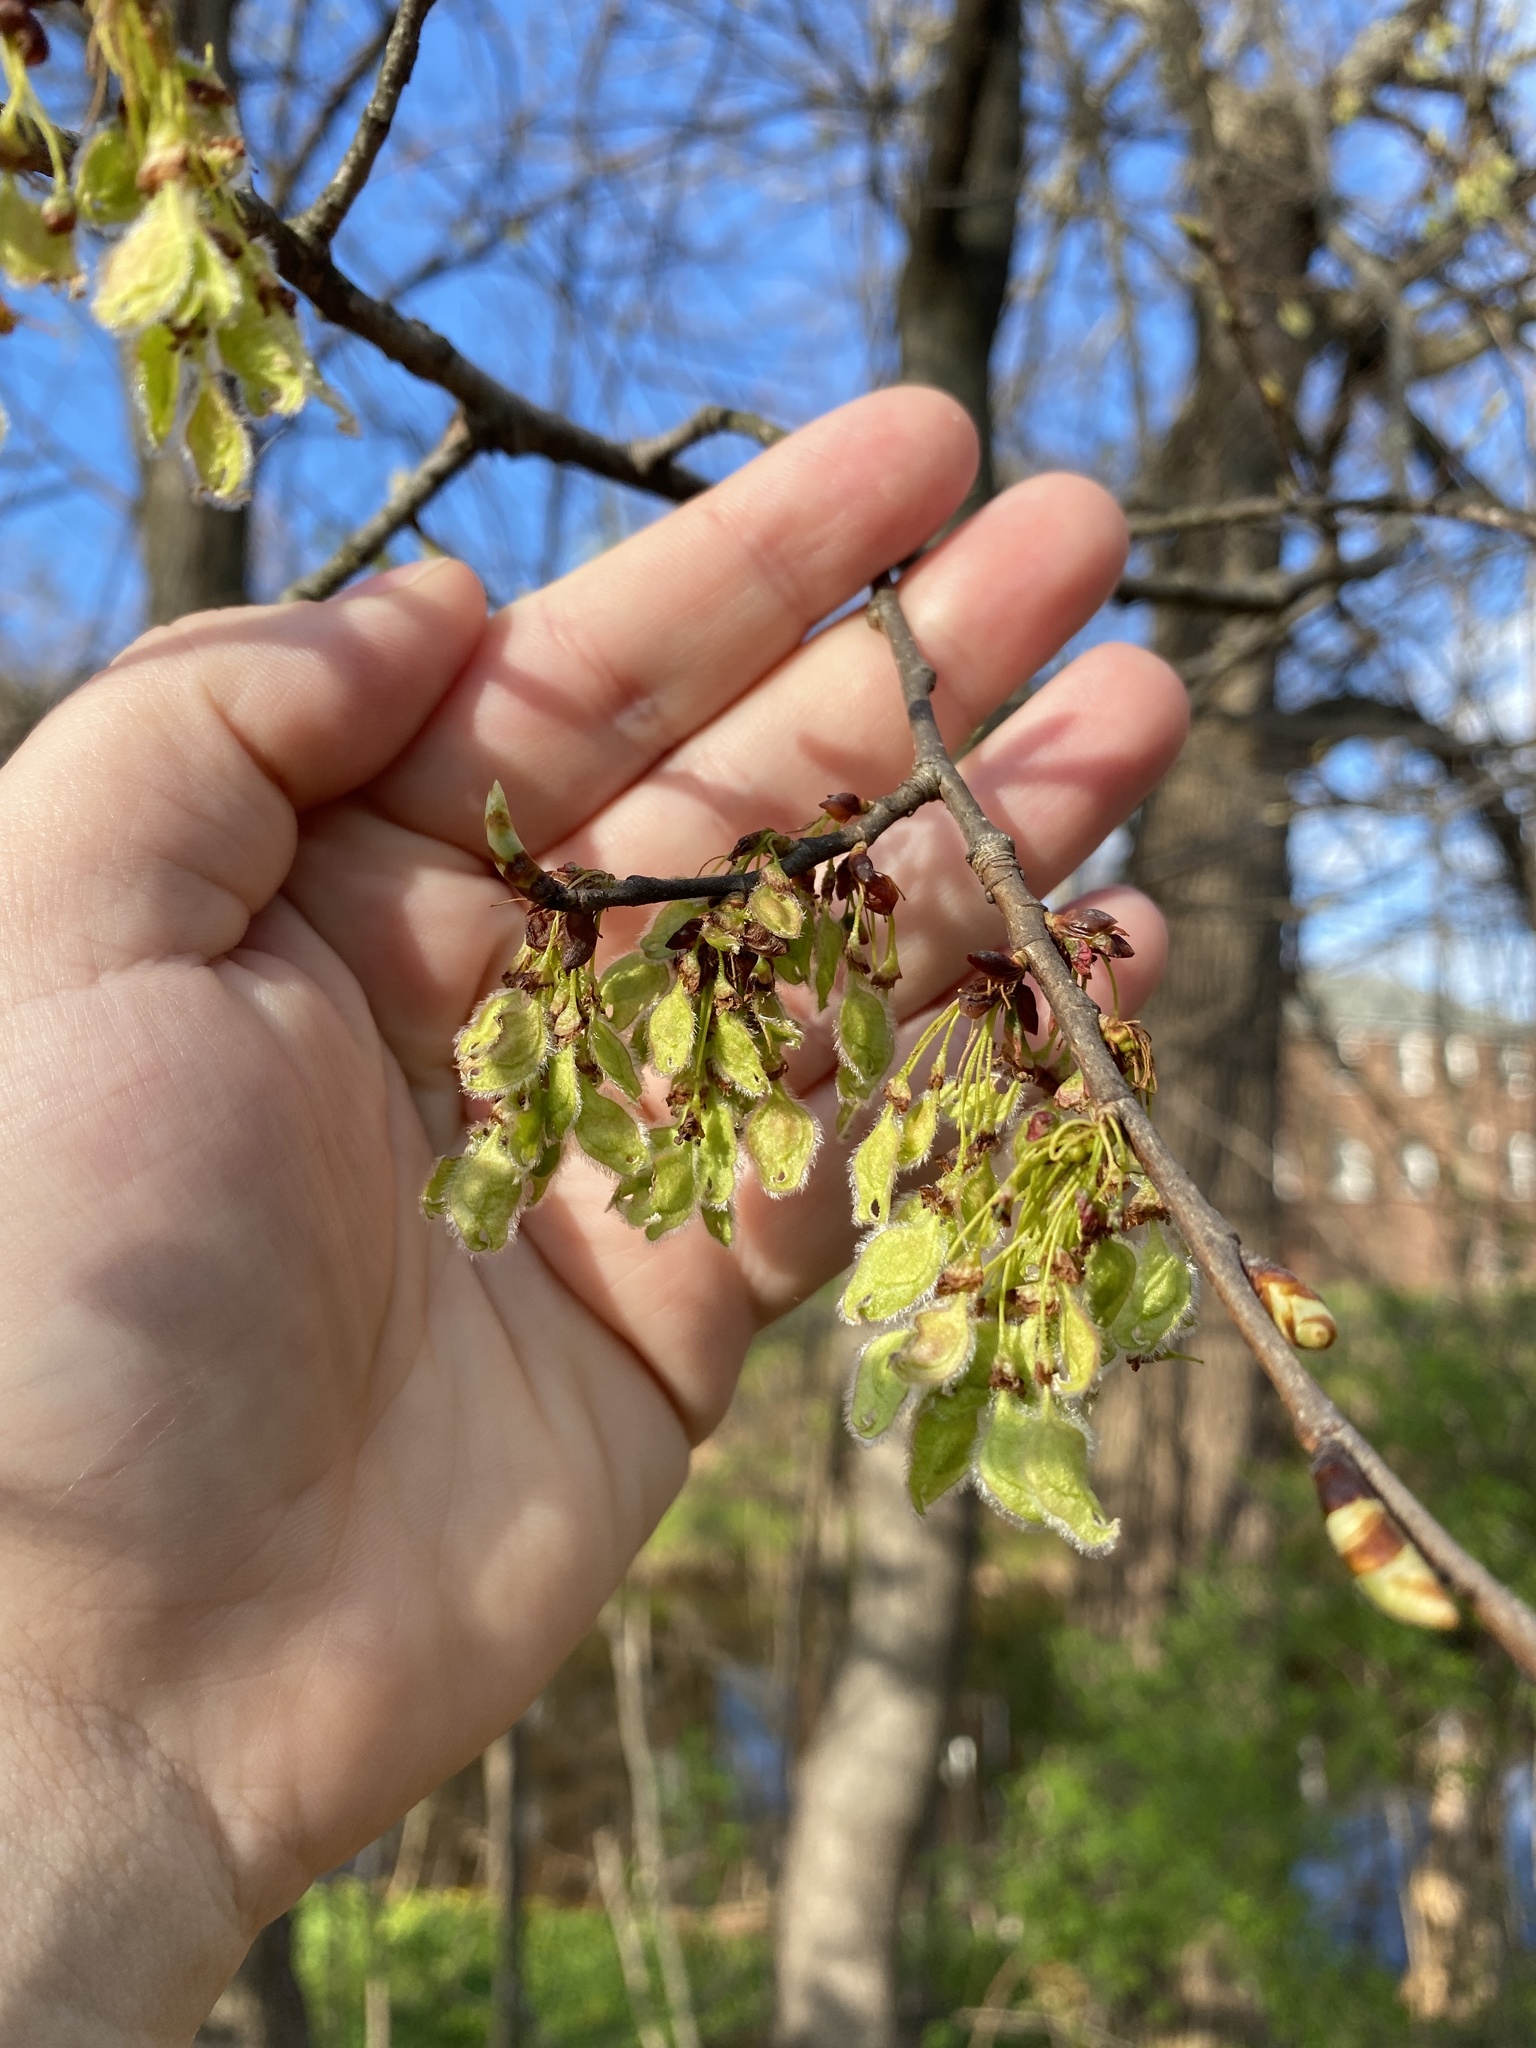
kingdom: Plantae
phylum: Tracheophyta
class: Magnoliopsida
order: Rosales
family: Ulmaceae
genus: Ulmus
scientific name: Ulmus americana
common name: American elm
